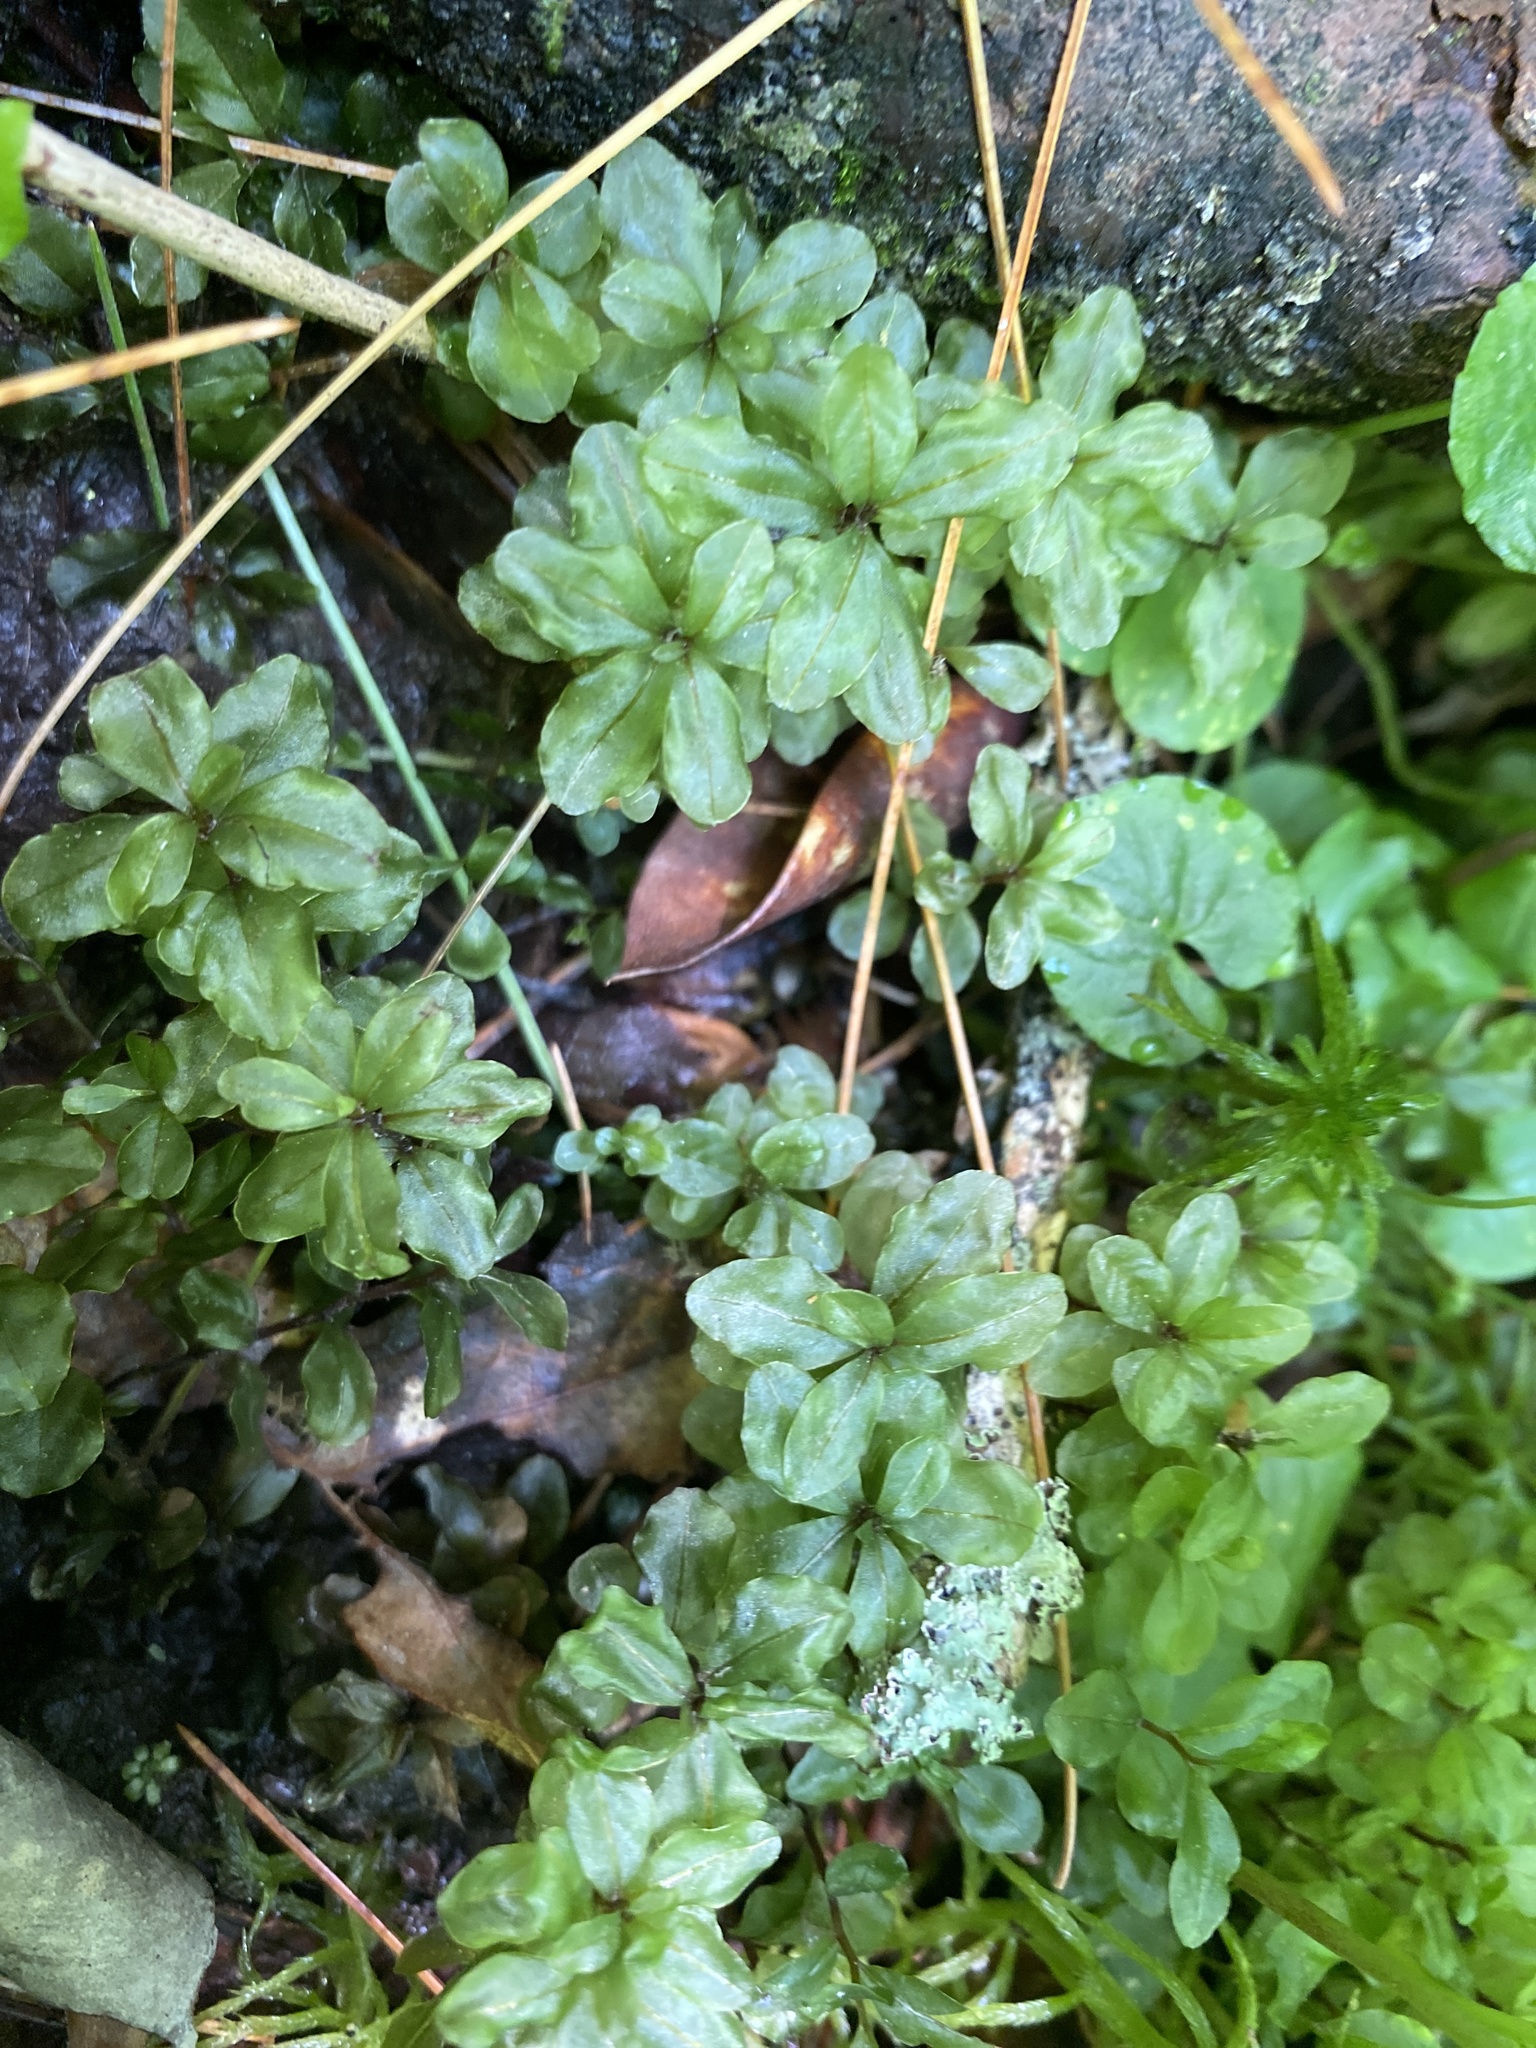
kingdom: Plantae
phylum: Bryophyta
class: Bryopsida
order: Bryales
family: Mniaceae
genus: Rhizomnium
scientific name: Rhizomnium appalachianum
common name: Appalachian leafy moss
